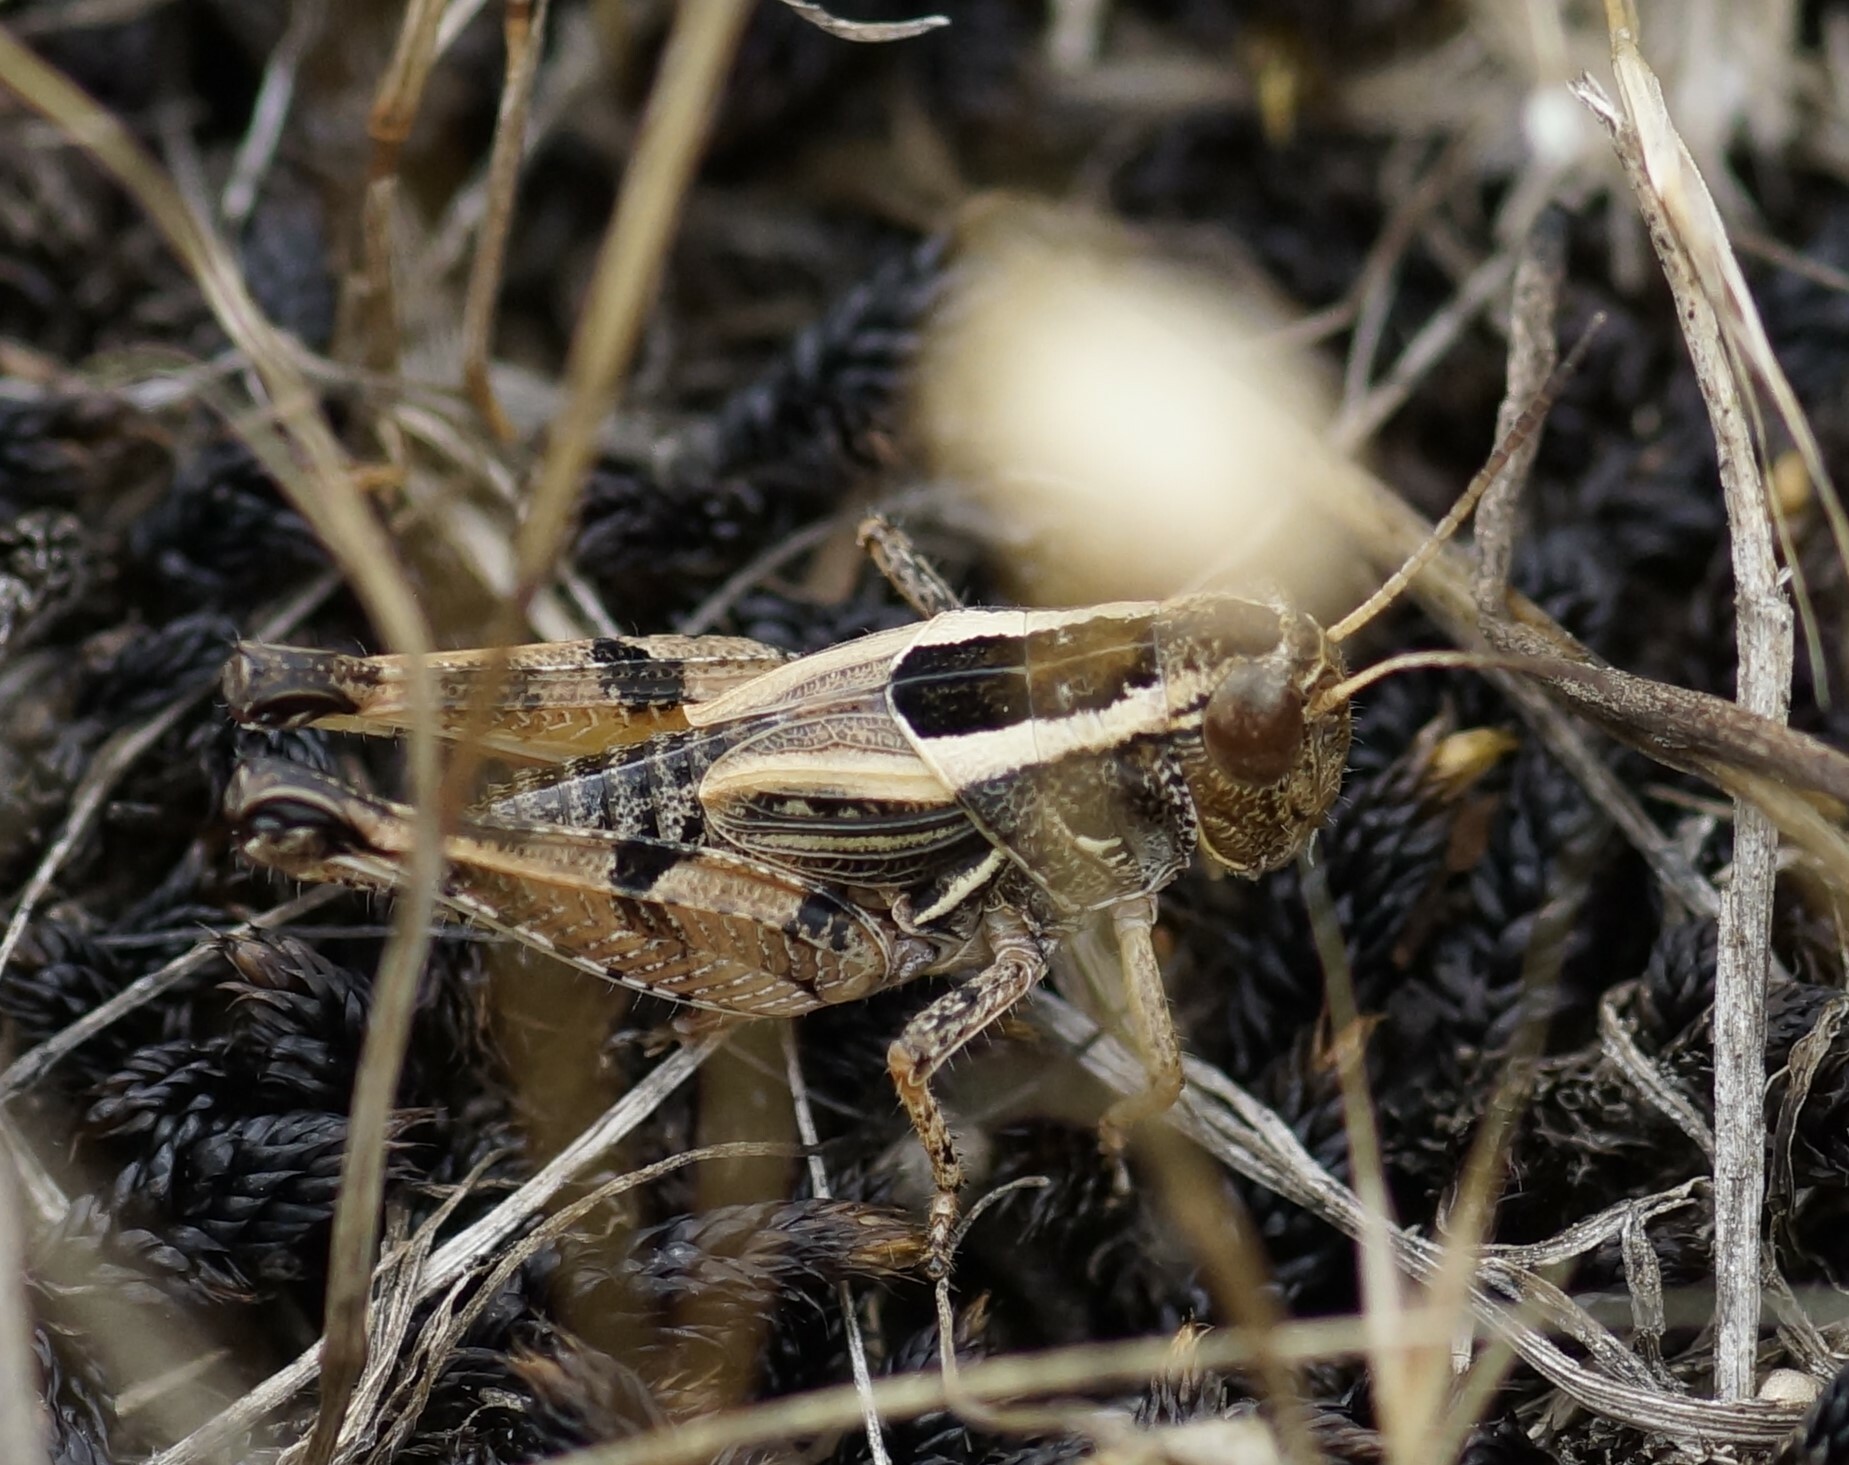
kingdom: Animalia
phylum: Arthropoda
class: Insecta
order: Orthoptera
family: Acrididae
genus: Brachyexarna
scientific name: Brachyexarna lobipennis
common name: Stripe-winged meadow grasshopper
